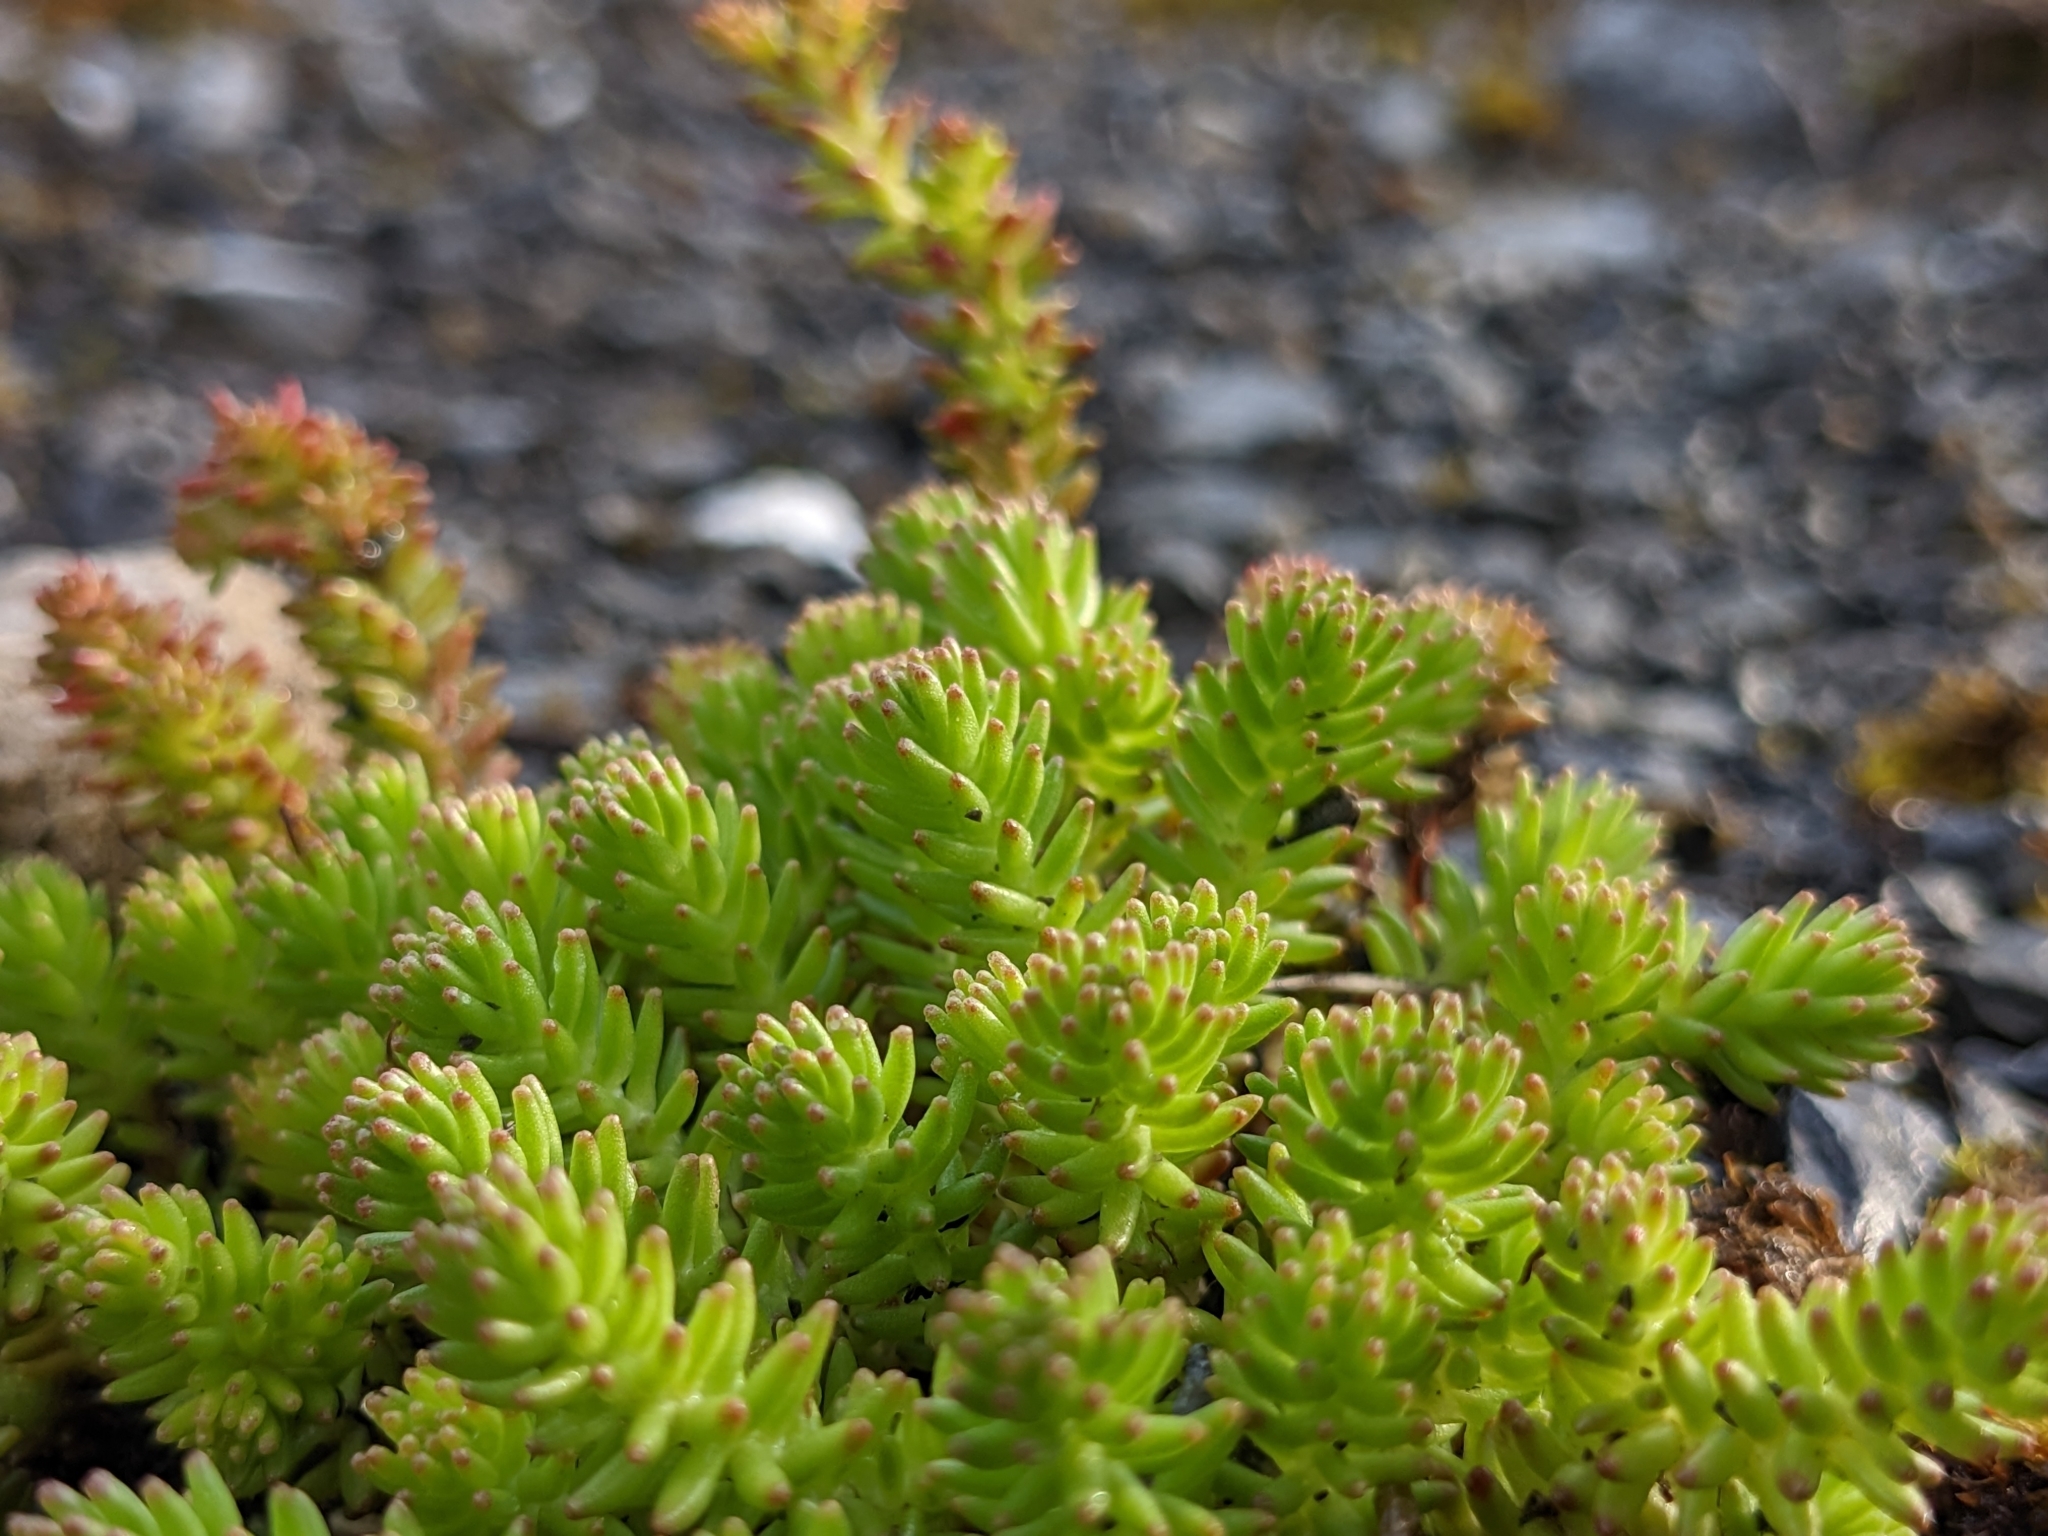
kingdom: Plantae
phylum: Tracheophyta
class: Magnoliopsida
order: Saxifragales
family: Crassulaceae
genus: Sedum
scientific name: Sedum sexangulare
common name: Tasteless stonecrop
